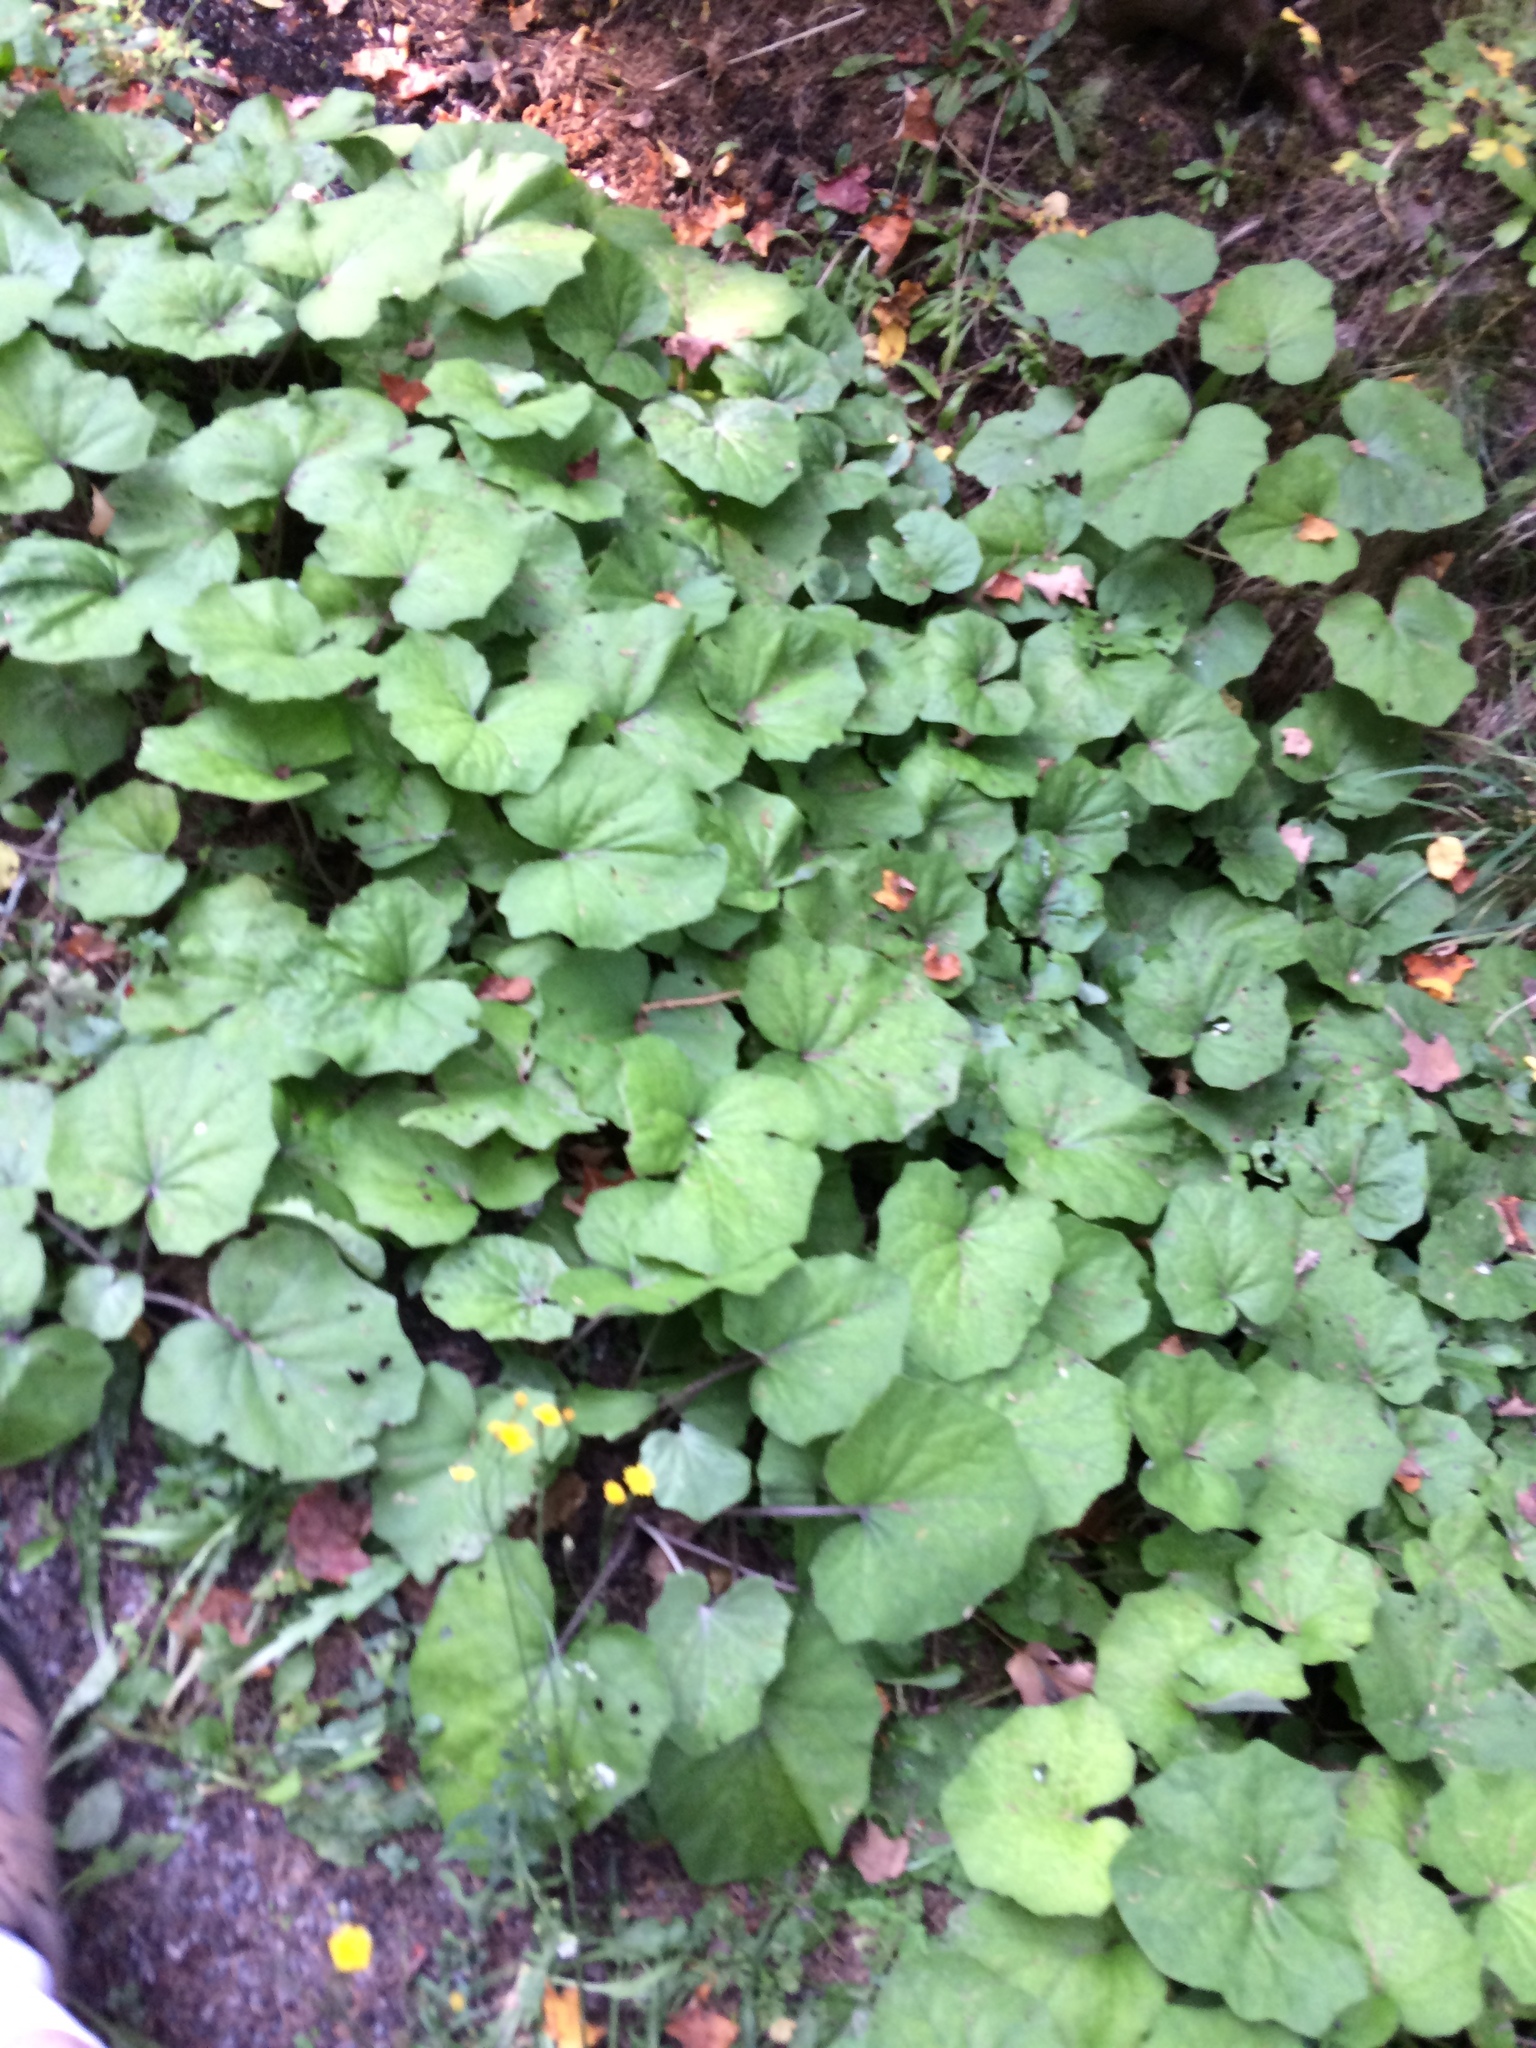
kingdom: Plantae
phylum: Tracheophyta
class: Magnoliopsida
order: Asterales
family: Asteraceae
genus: Tussilago
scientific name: Tussilago farfara
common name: Coltsfoot
